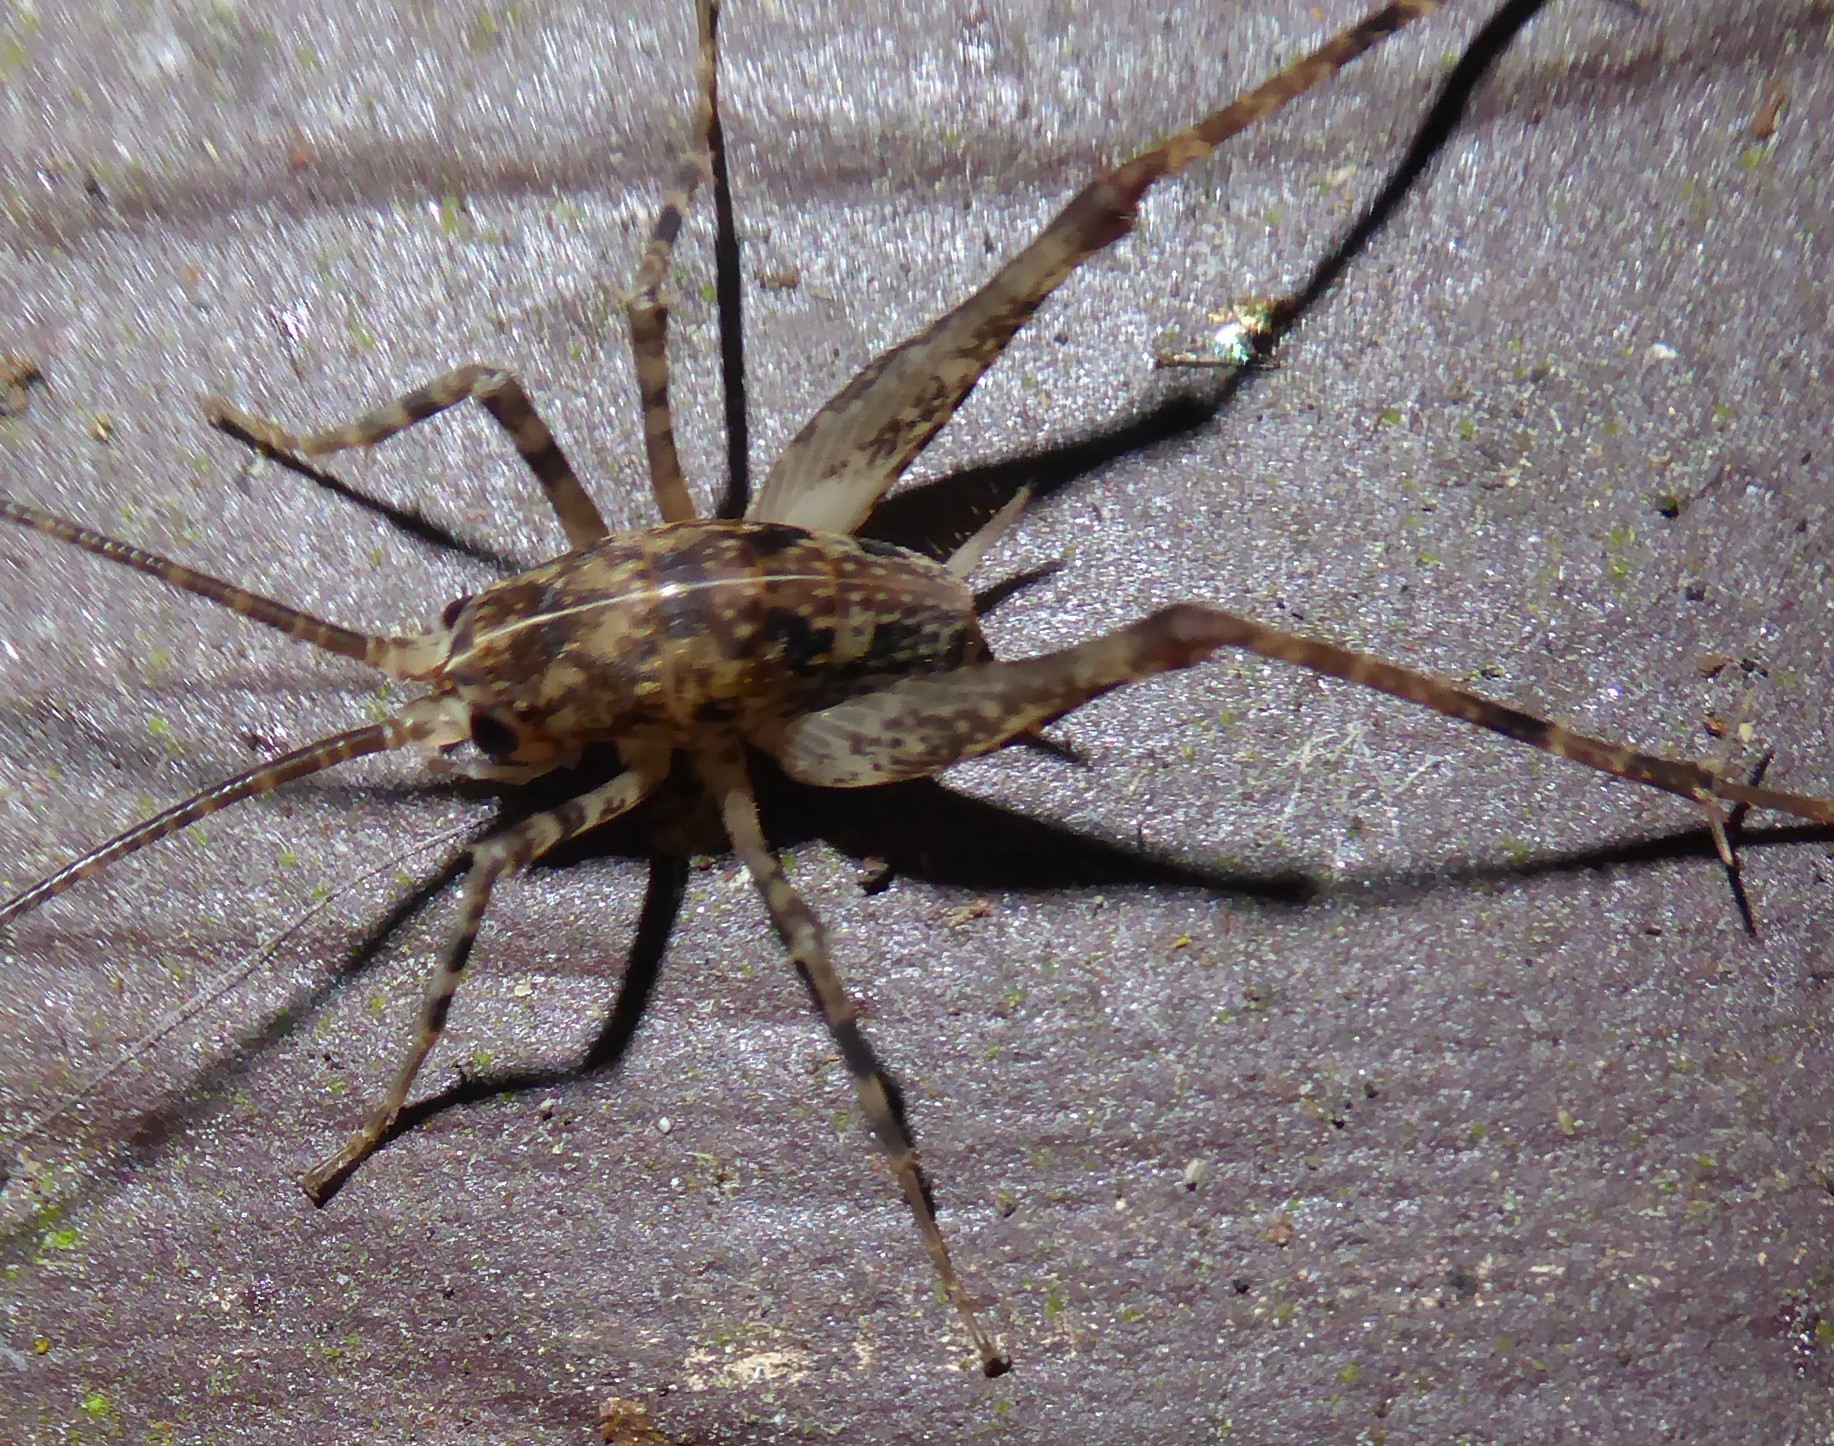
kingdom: Animalia
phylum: Arthropoda
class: Insecta
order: Orthoptera
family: Rhaphidophoridae
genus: Pleioplectron
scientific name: Pleioplectron simplex
